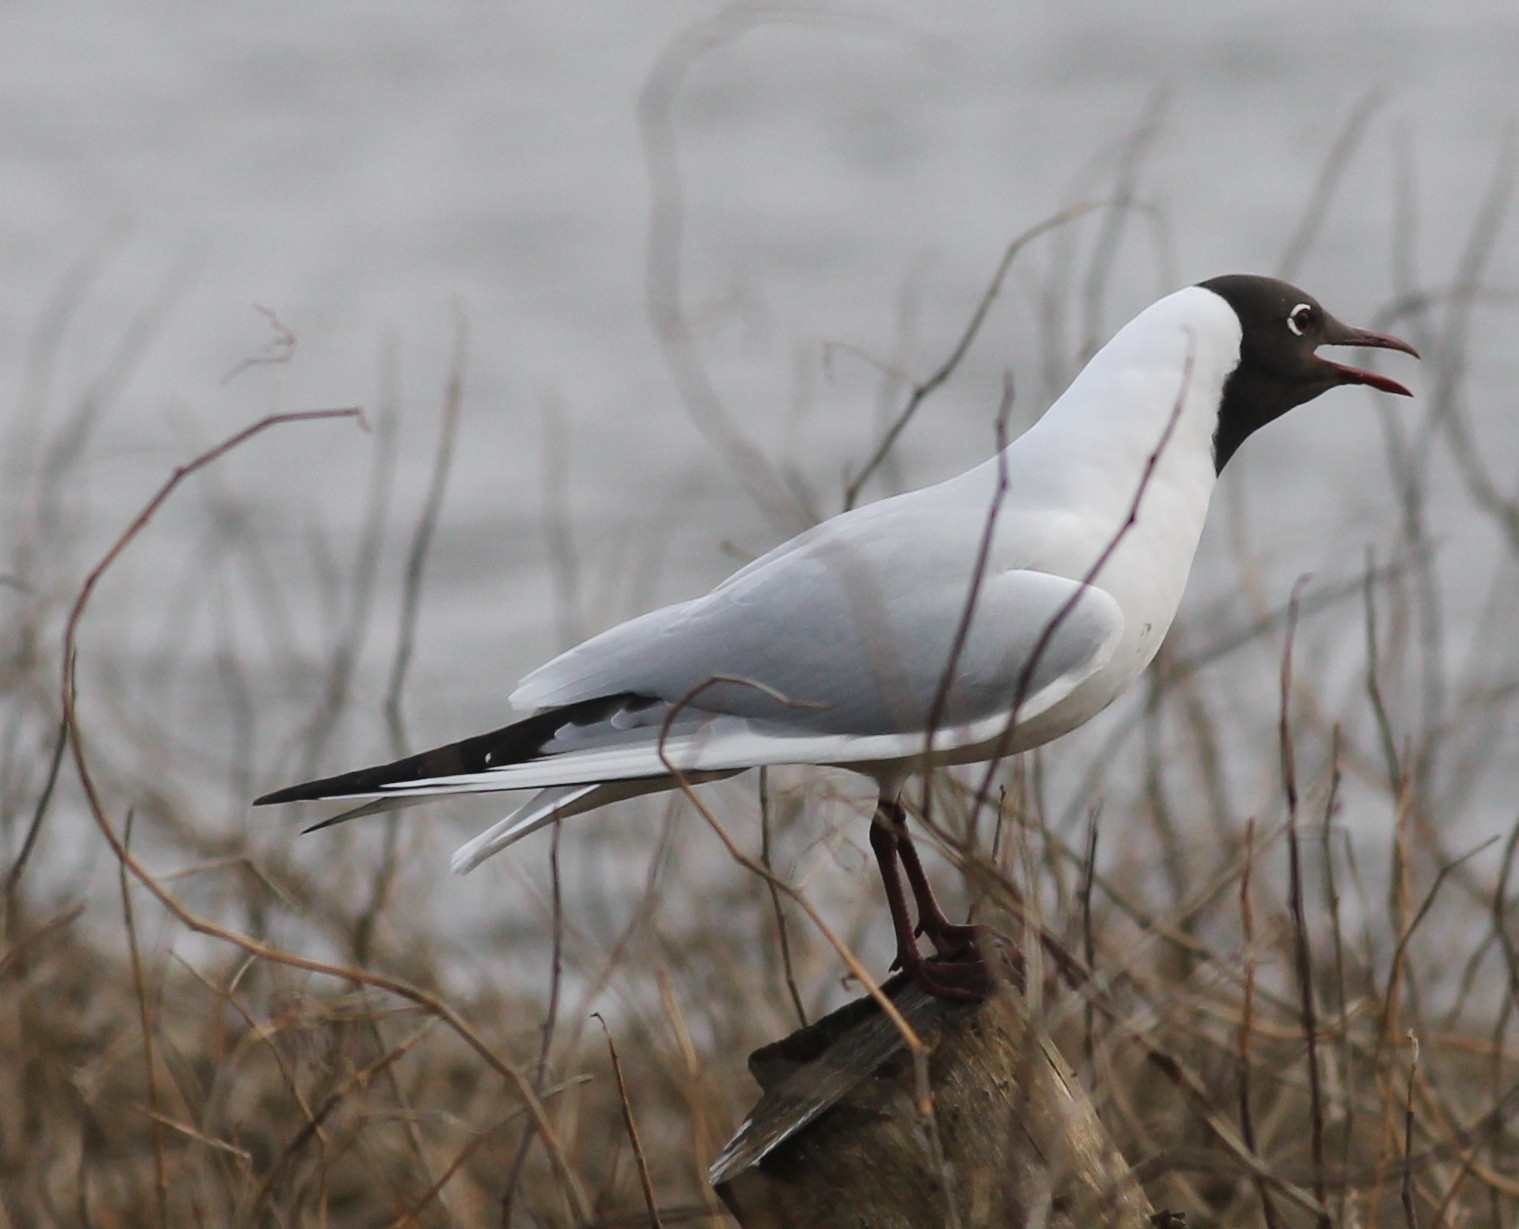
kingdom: Animalia
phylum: Chordata
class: Aves
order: Charadriiformes
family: Laridae
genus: Chroicocephalus
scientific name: Chroicocephalus ridibundus
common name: Black-headed gull
